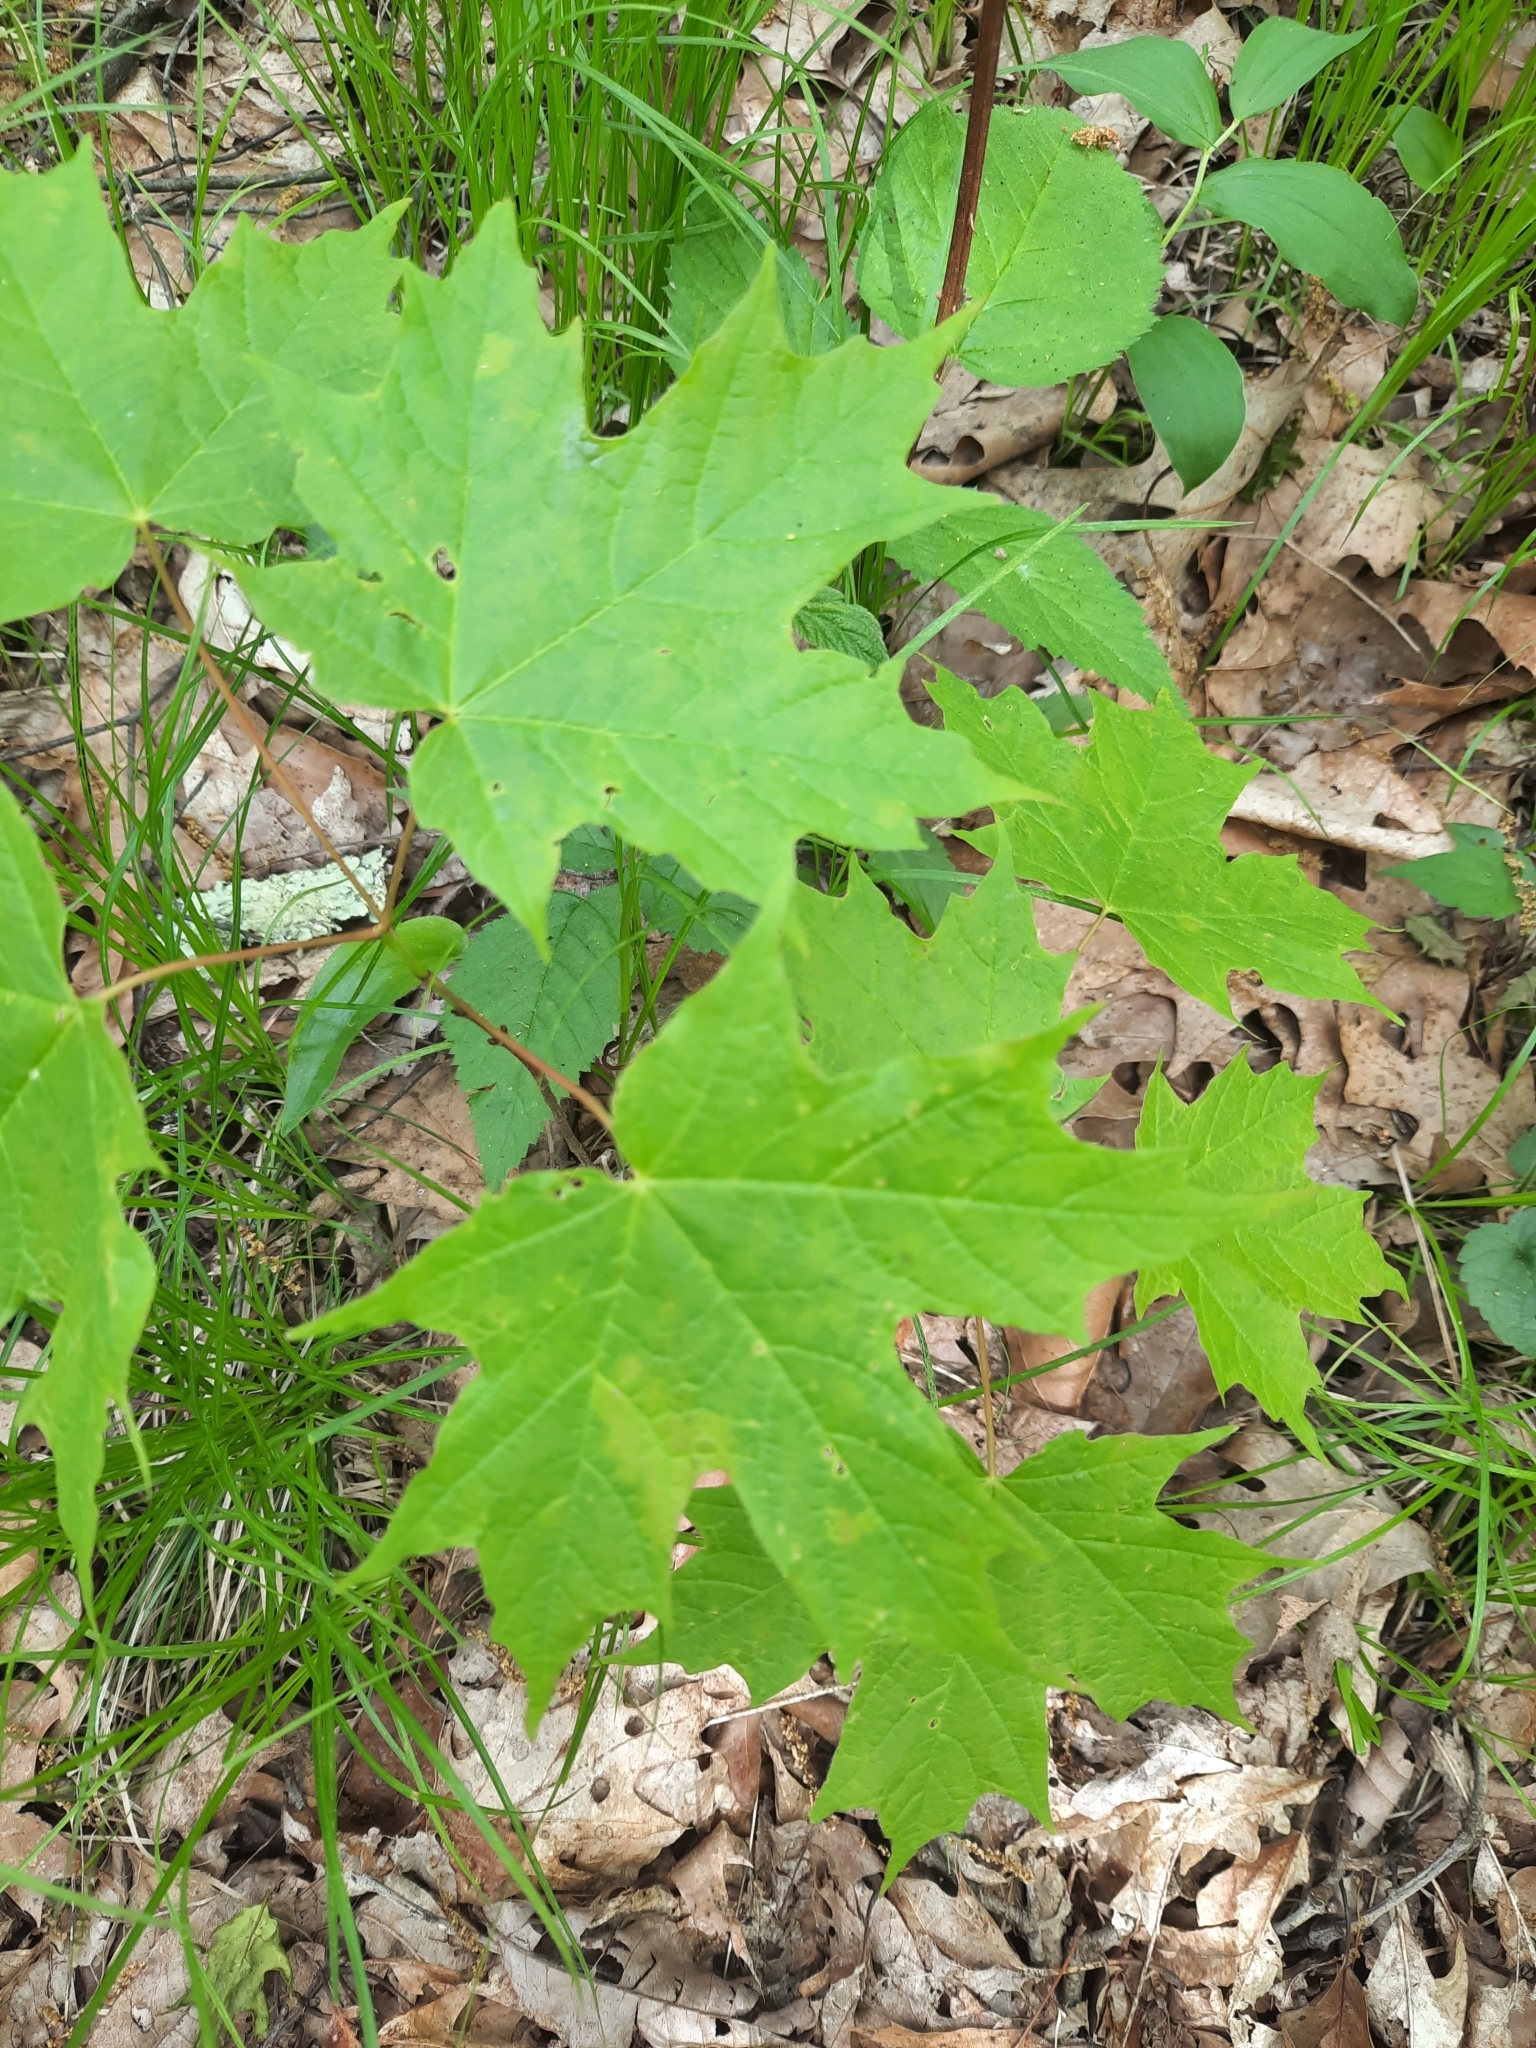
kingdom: Plantae
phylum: Tracheophyta
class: Magnoliopsida
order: Sapindales
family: Sapindaceae
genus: Acer
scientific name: Acer saccharum
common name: Sugar maple
